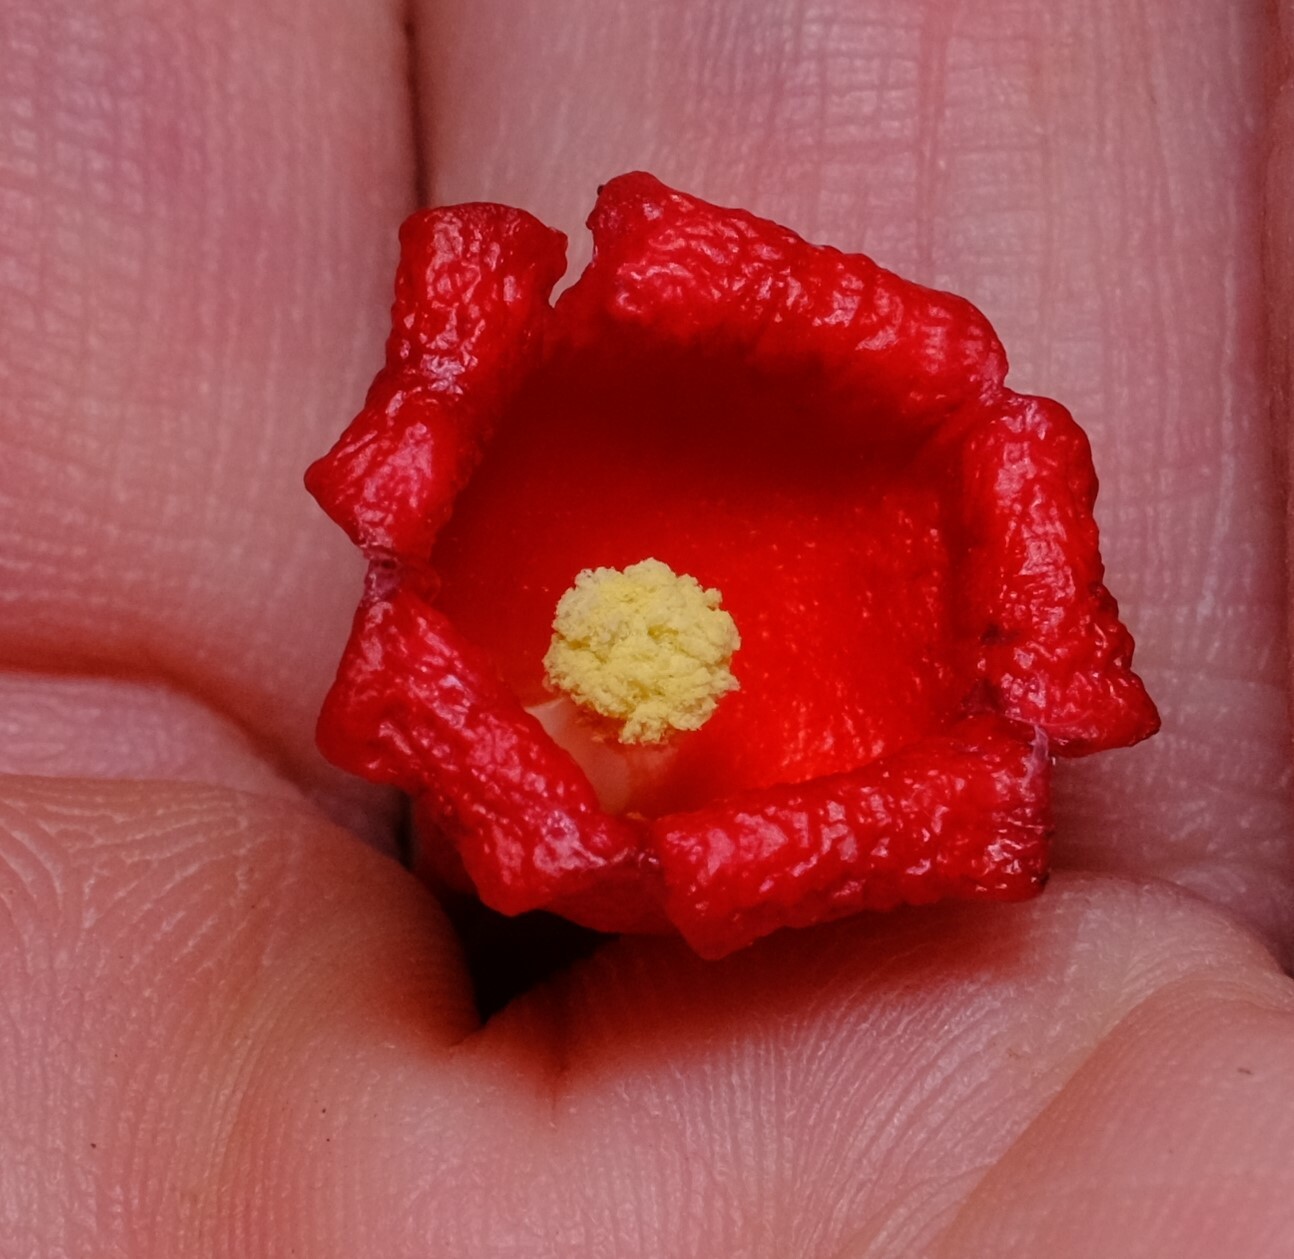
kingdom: Plantae
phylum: Tracheophyta
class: Magnoliopsida
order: Malvales
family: Malvaceae
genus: Brachychiton
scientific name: Brachychiton acerifolius
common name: Illawarra flame tree
